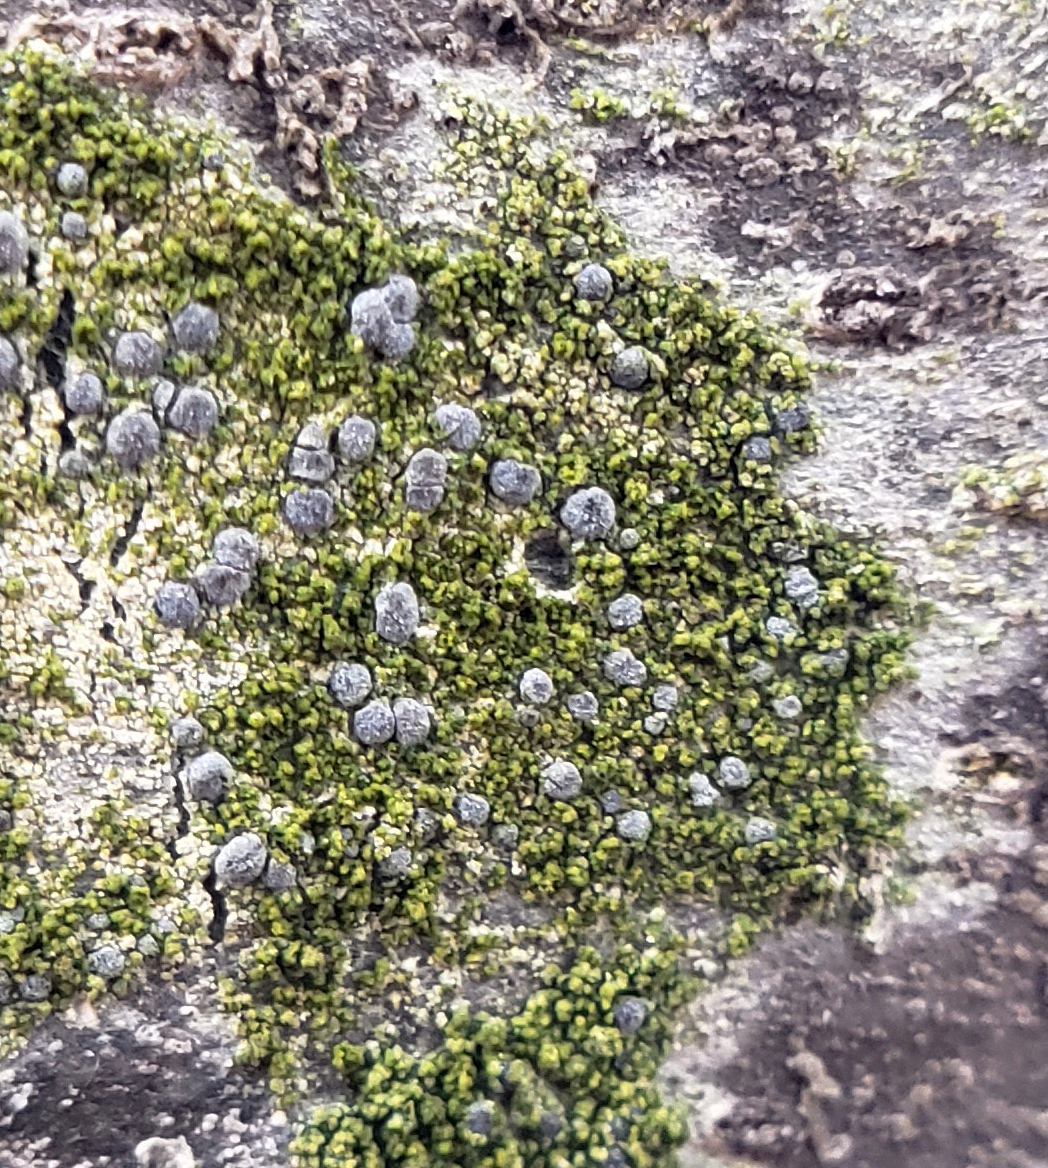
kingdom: Fungi
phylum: Ascomycota
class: Arthoniomycetes
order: Arthoniales
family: Chrysotrichaceae
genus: Chrysothrix
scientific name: Chrysothrix caesia
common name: Frosted comma lichen
